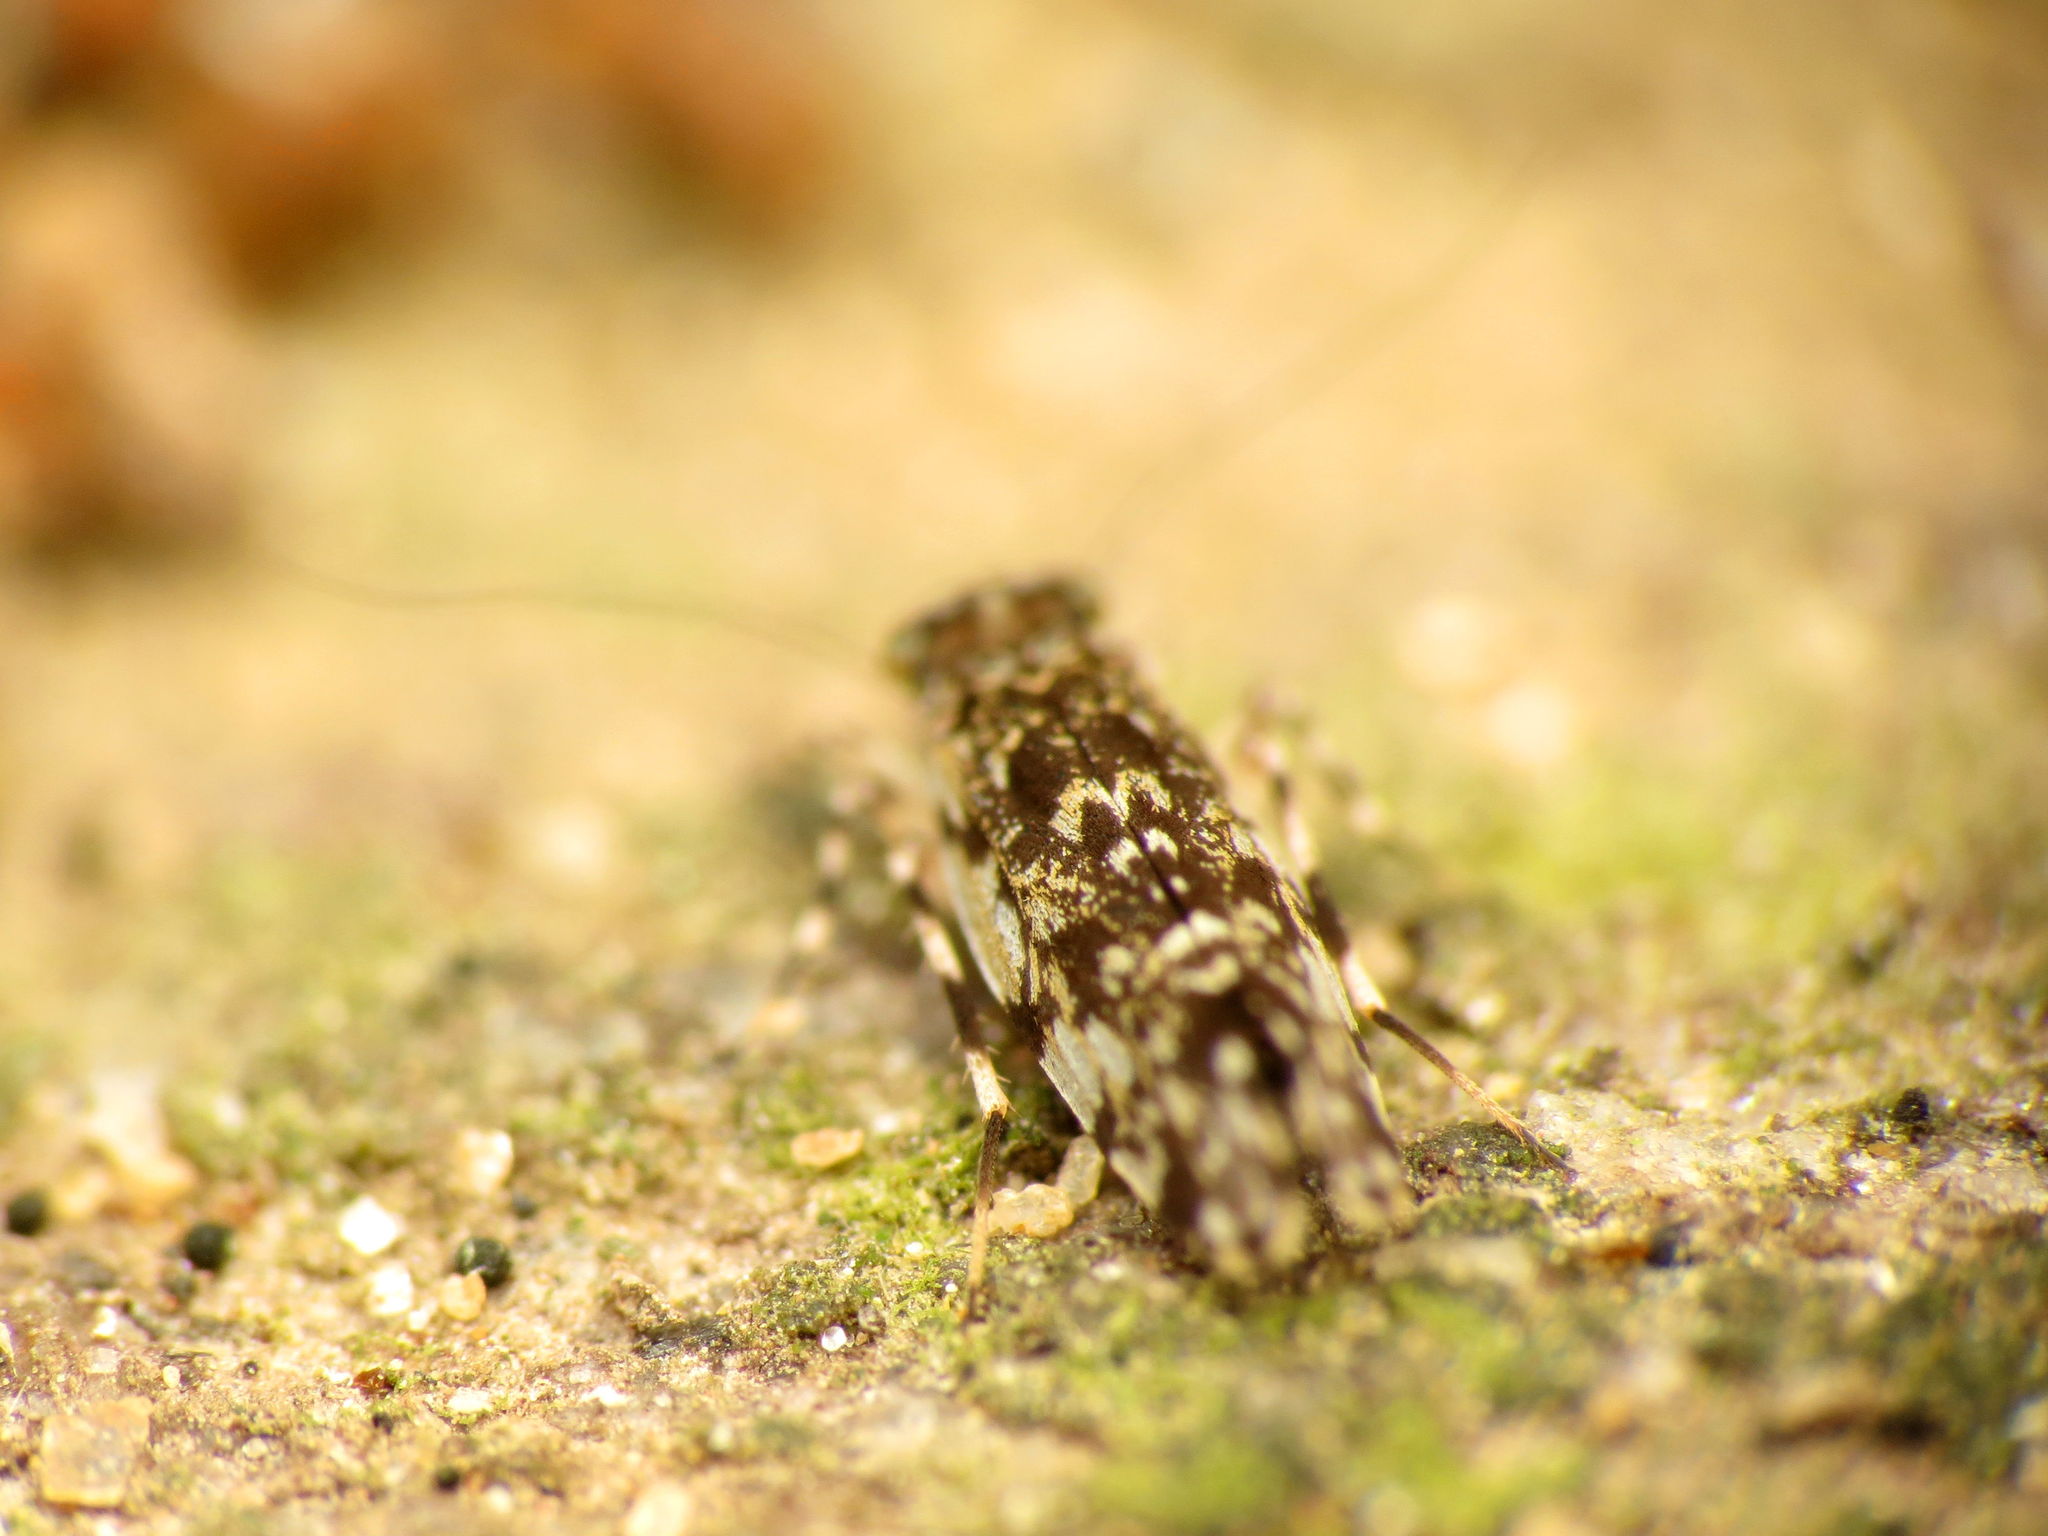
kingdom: Animalia
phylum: Arthropoda
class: Insecta
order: Psocodea
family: Amphientomidae
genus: Stimulopalpus
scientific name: Stimulopalpus japonicus
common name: Tropical bark louse
